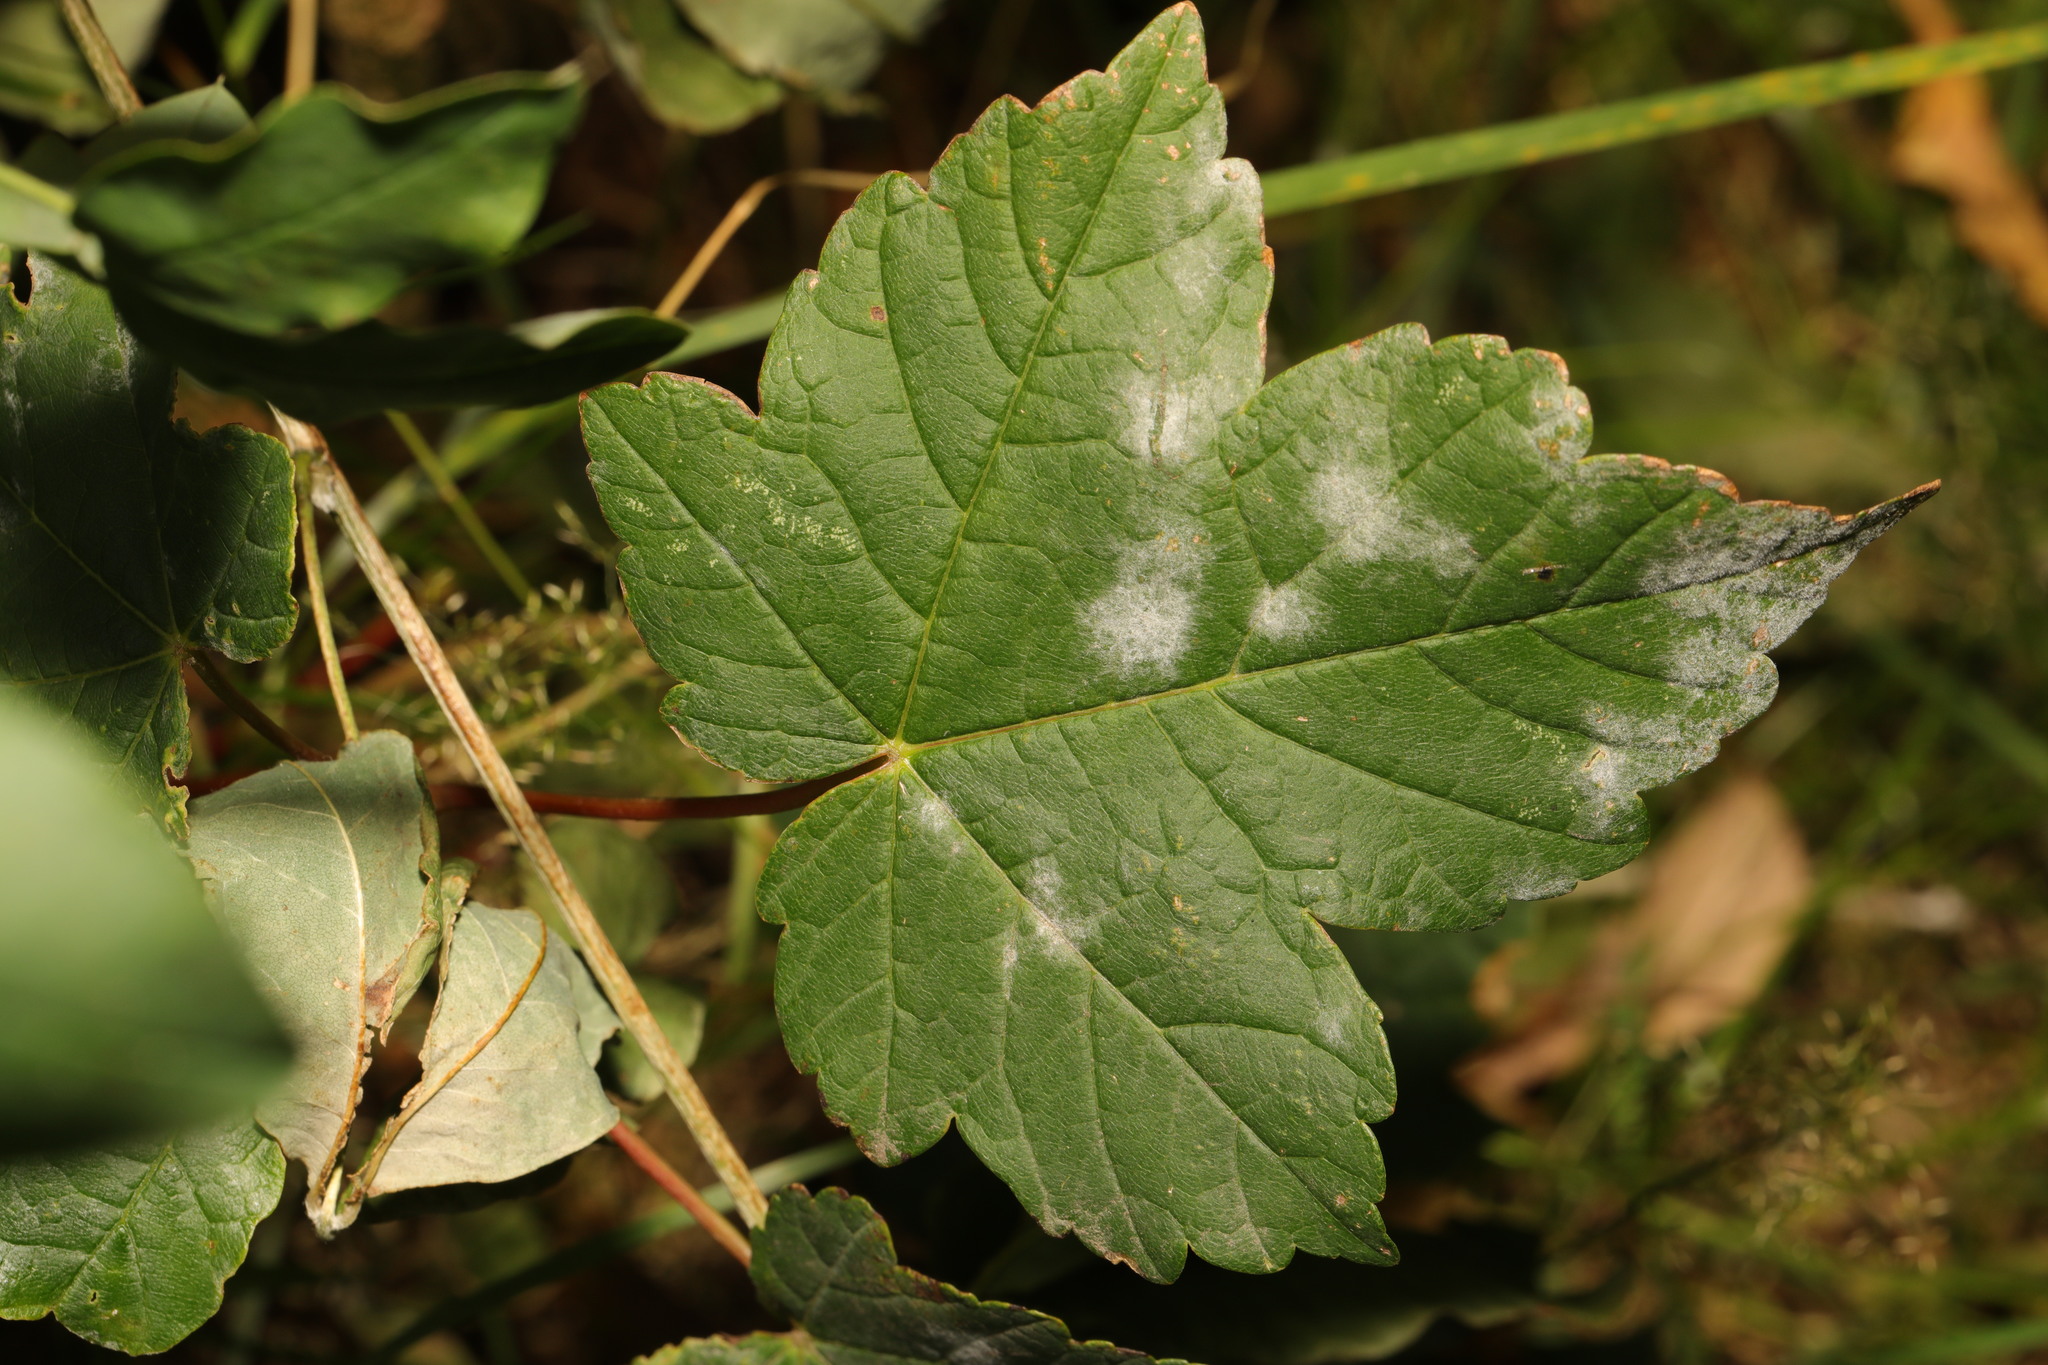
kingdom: Plantae
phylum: Tracheophyta
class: Magnoliopsida
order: Sapindales
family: Sapindaceae
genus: Acer
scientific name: Acer pseudoplatanus
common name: Sycamore
